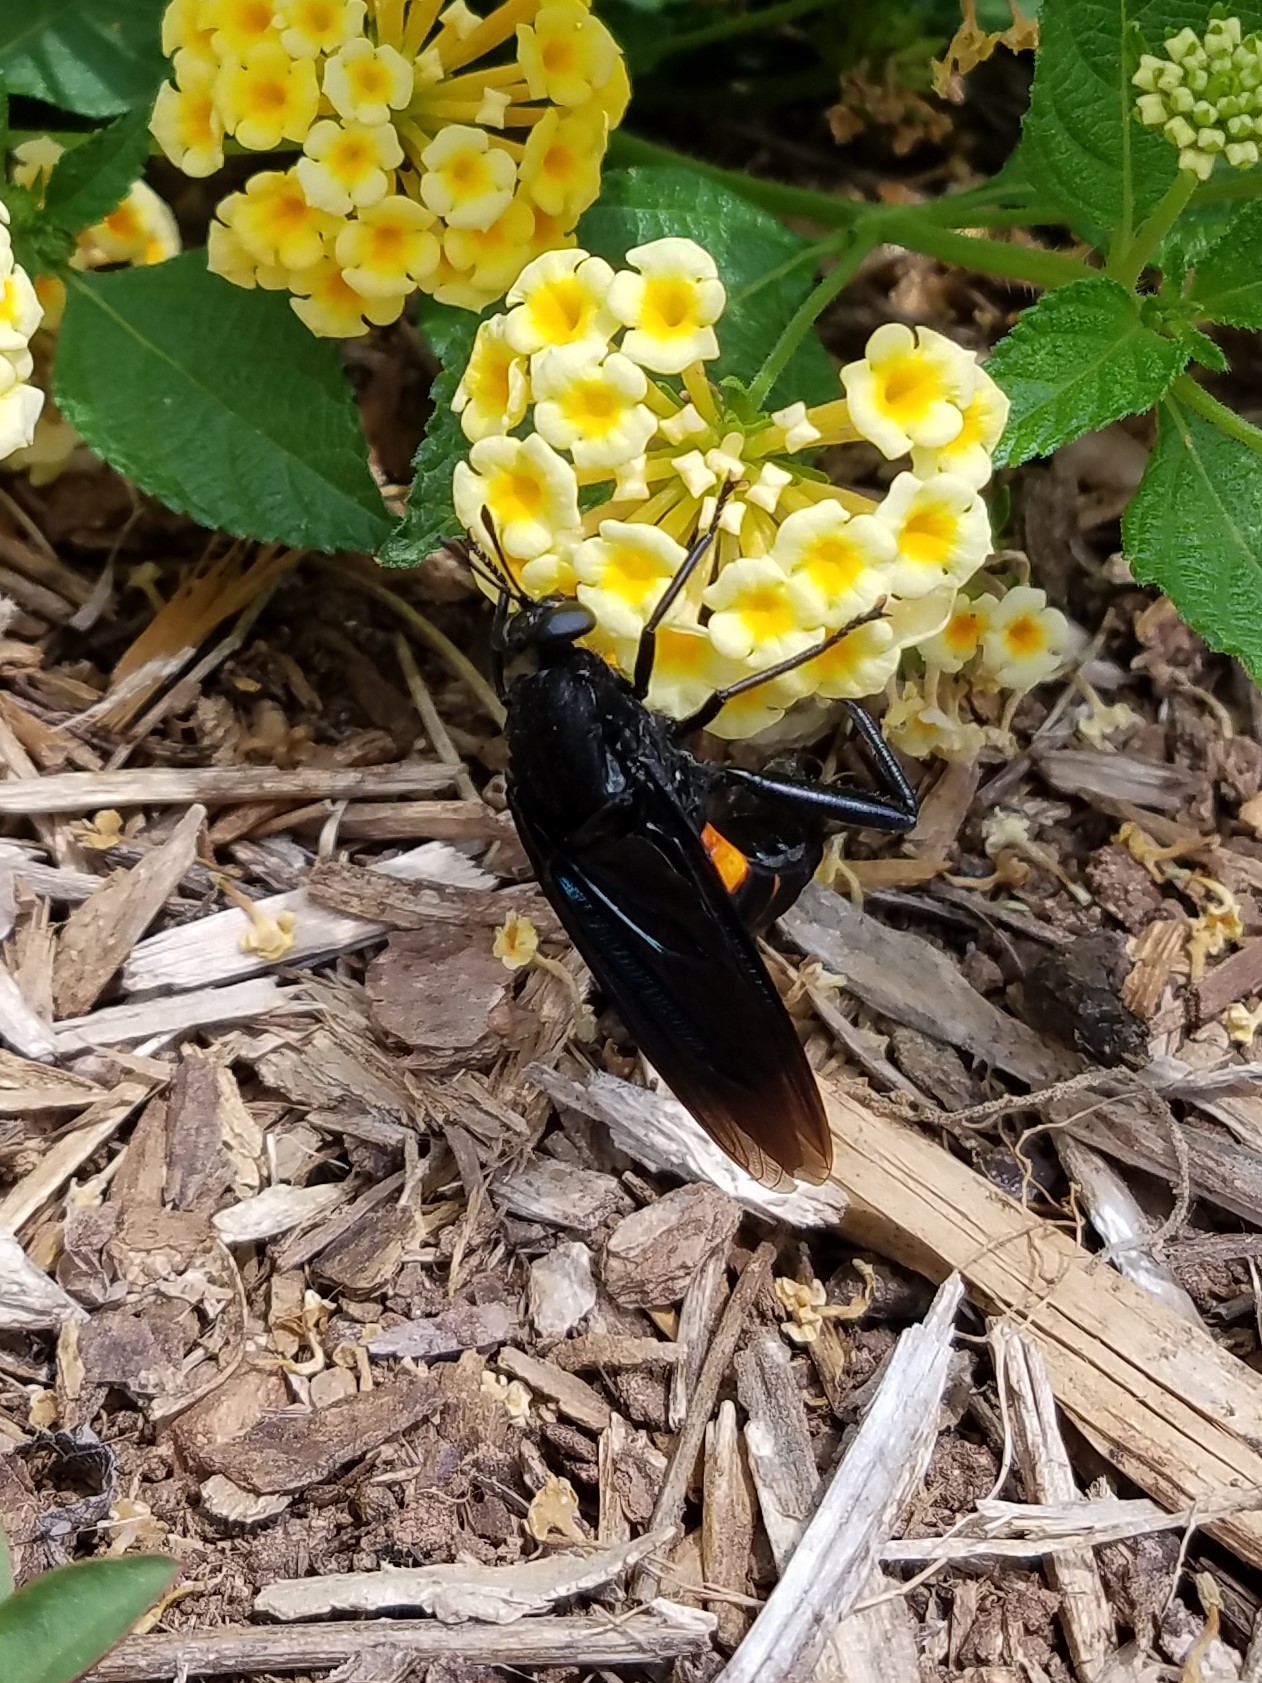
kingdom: Animalia
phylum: Arthropoda
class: Insecta
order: Diptera
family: Mydidae
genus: Mydas
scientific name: Mydas clavatus
